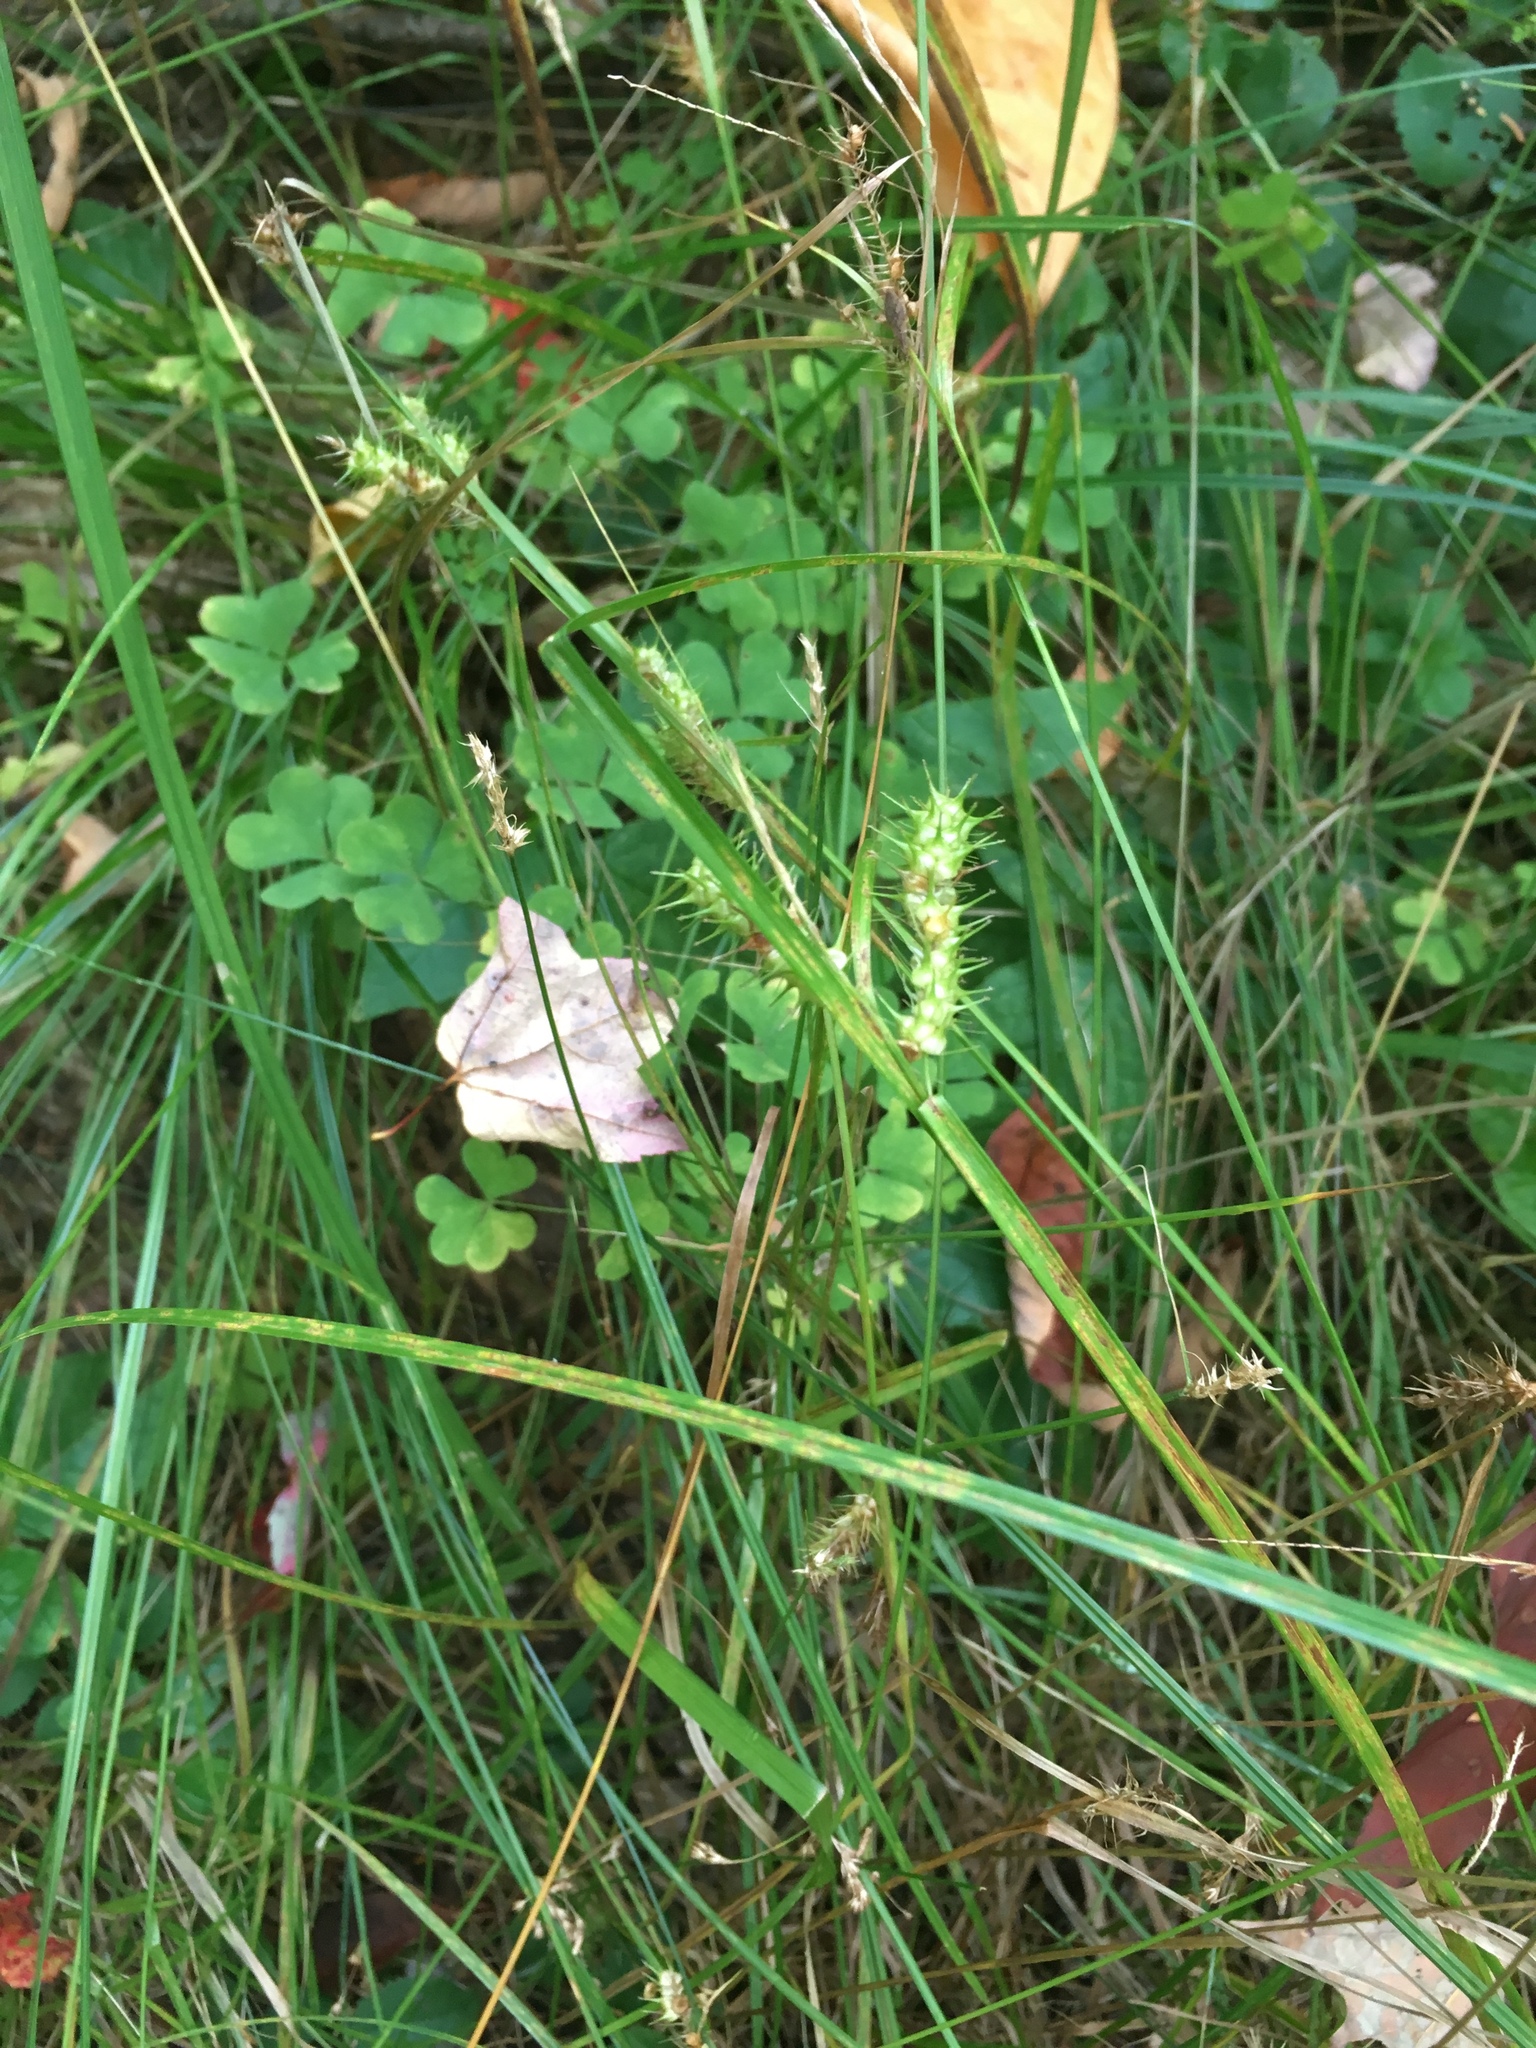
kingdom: Plantae
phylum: Tracheophyta
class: Liliopsida
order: Poales
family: Cyperaceae
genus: Carex
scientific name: Carex baileyi
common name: Bailey's sedge
